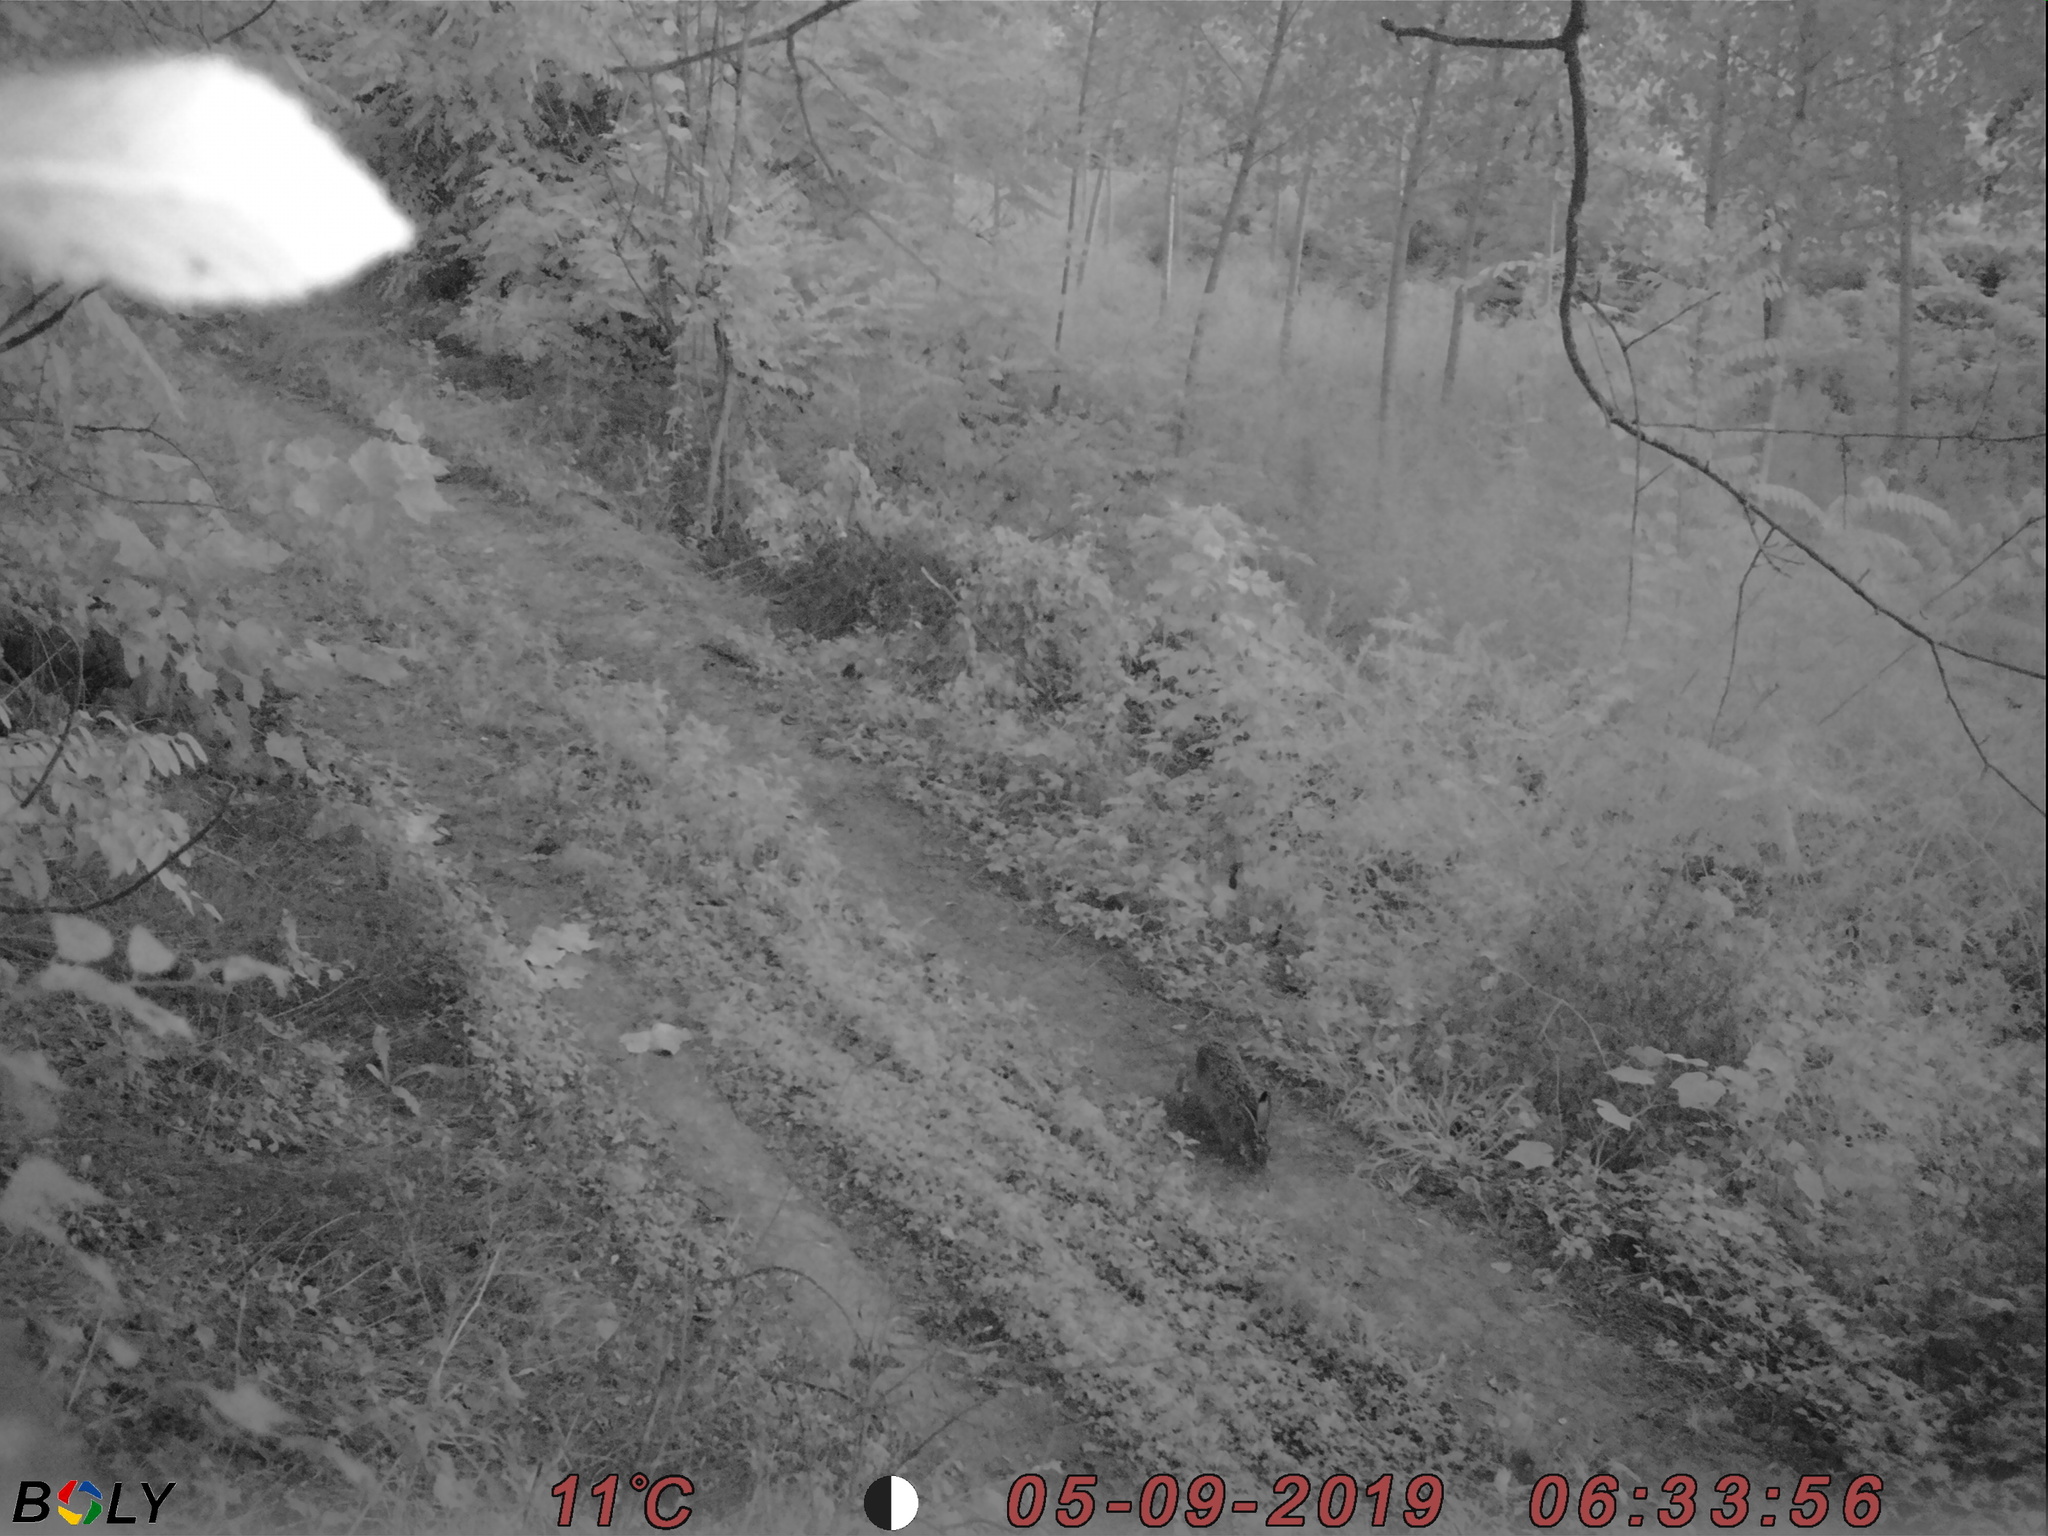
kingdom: Animalia
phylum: Chordata
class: Mammalia
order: Lagomorpha
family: Leporidae
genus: Lepus
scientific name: Lepus europaeus
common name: European hare
